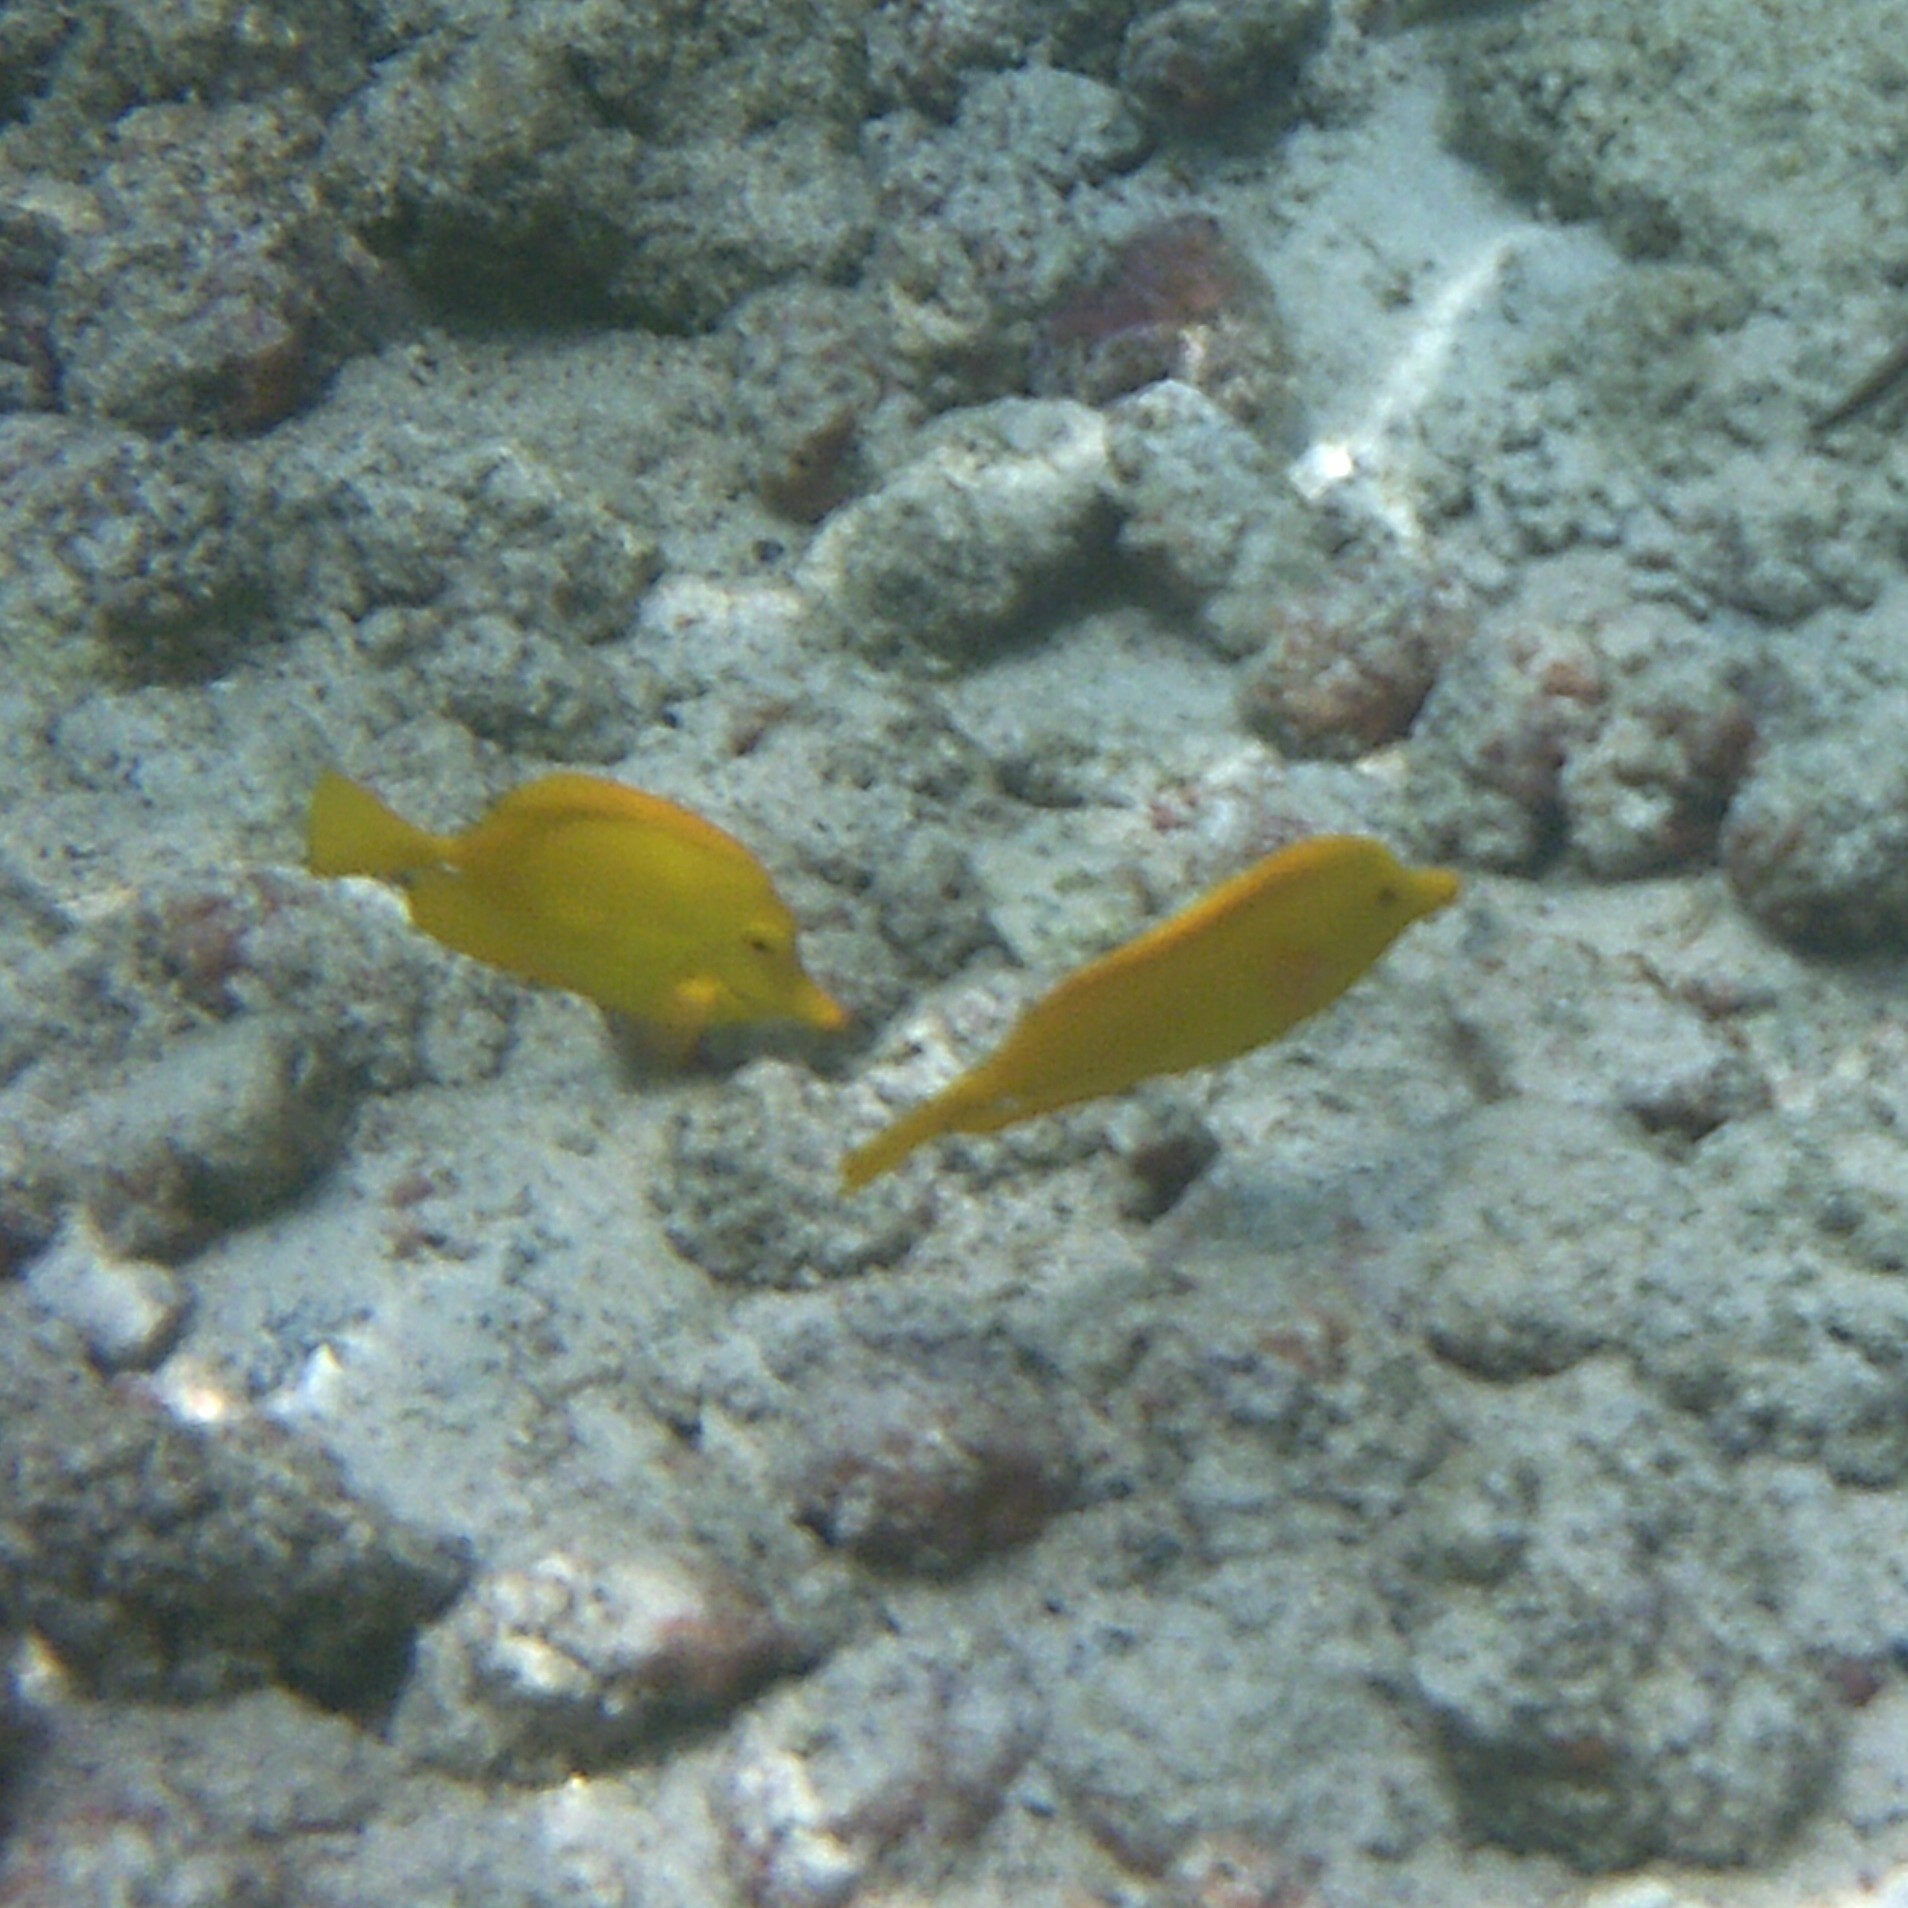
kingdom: Animalia
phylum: Chordata
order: Perciformes
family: Acanthuridae
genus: Zebrasoma
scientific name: Zebrasoma flavescens
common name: Yellow tang
